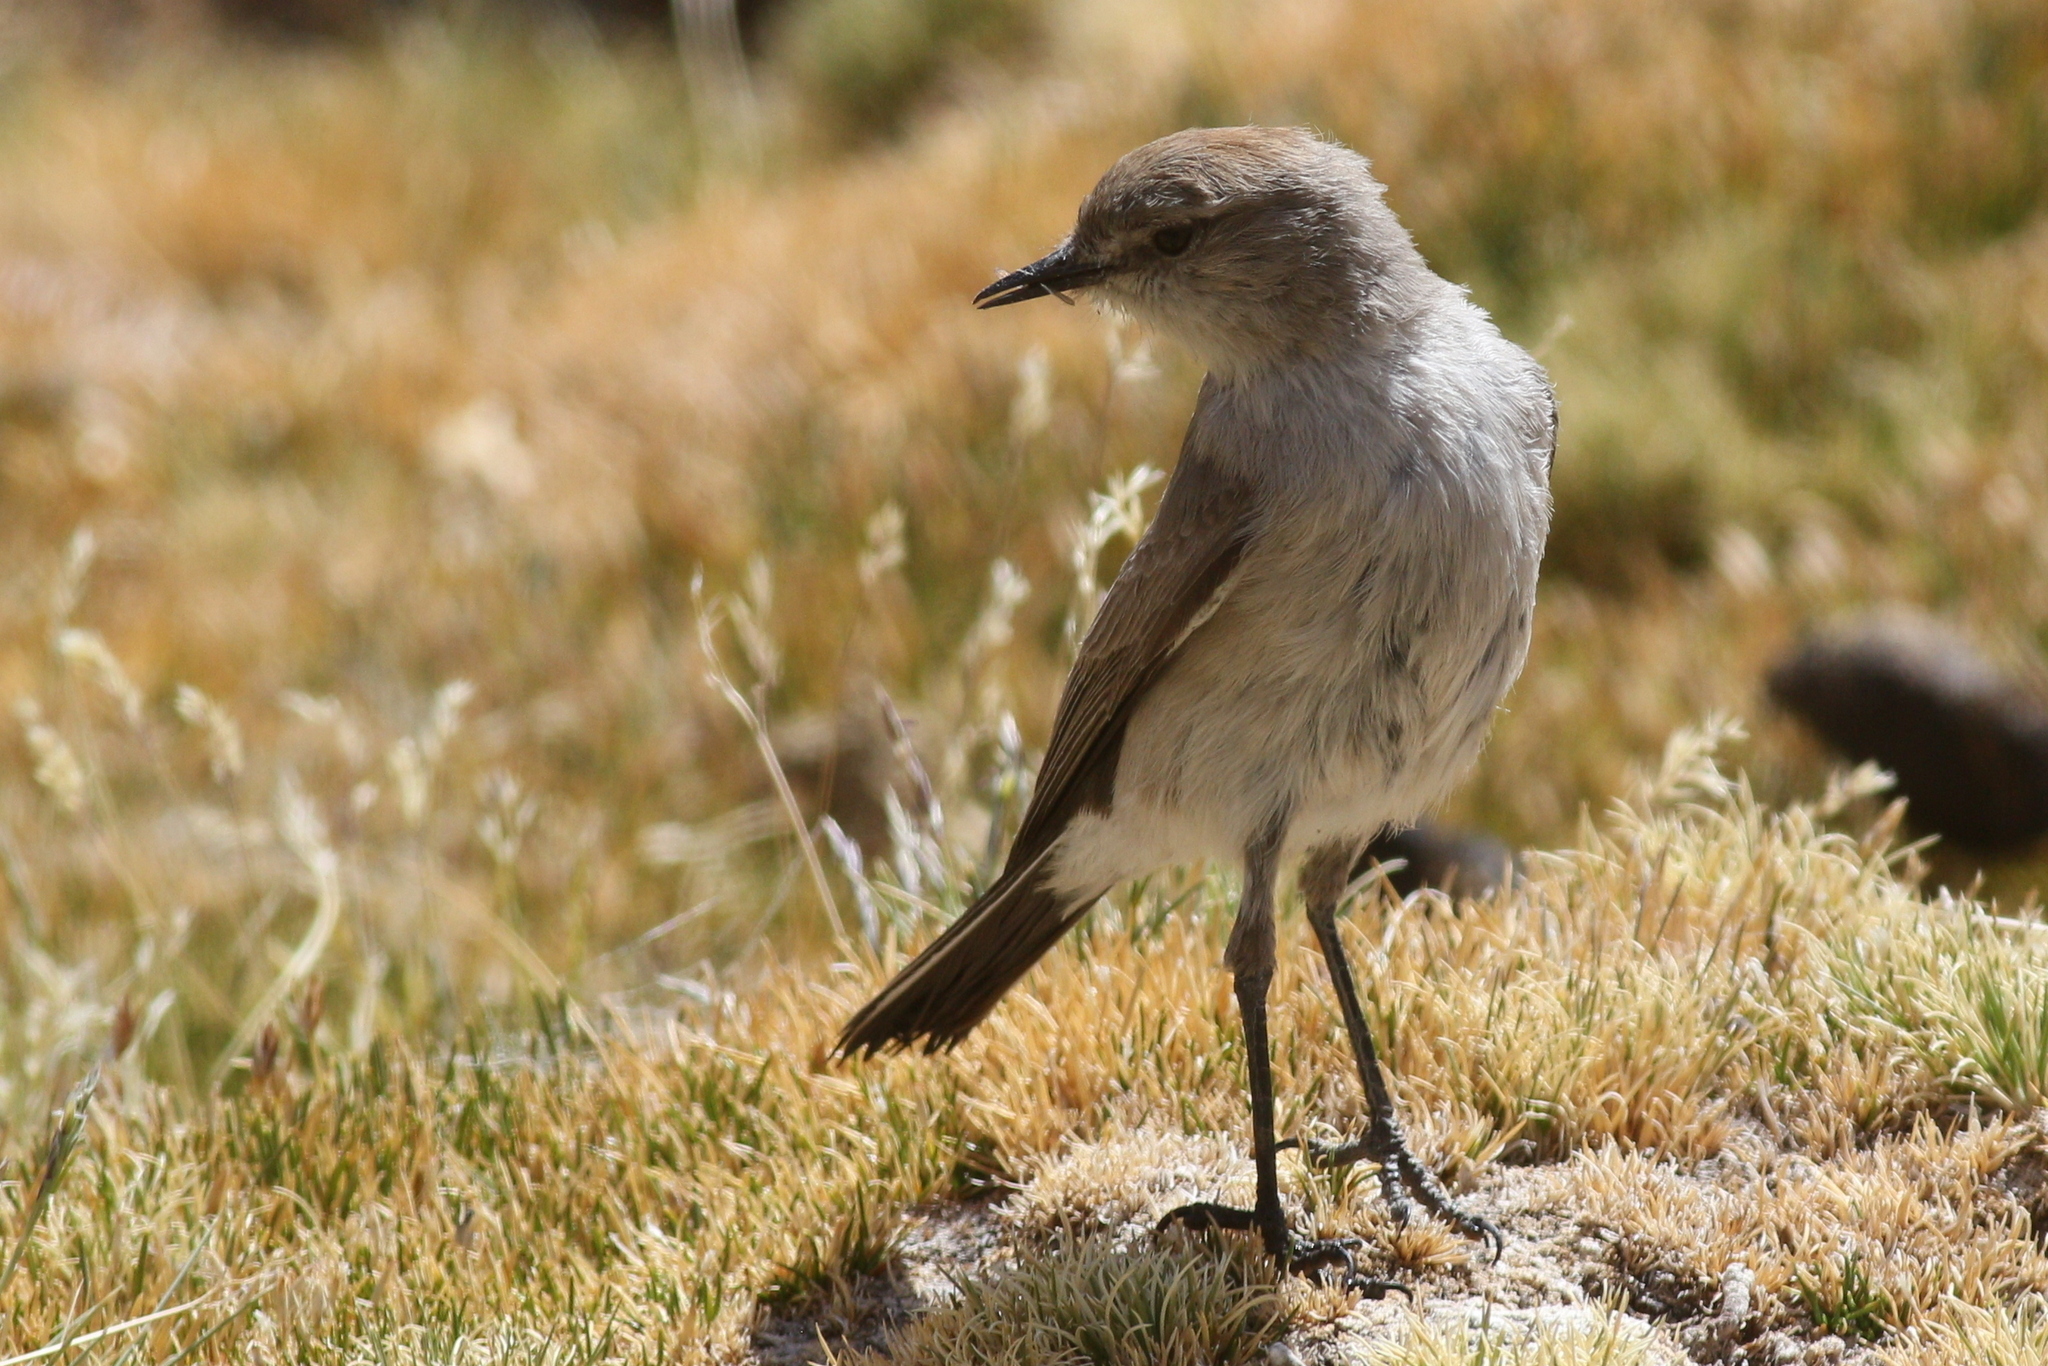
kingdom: Animalia
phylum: Chordata
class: Aves
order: Passeriformes
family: Tyrannidae
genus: Muscisaxicola
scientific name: Muscisaxicola juninensis
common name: Puna ground tyrant
